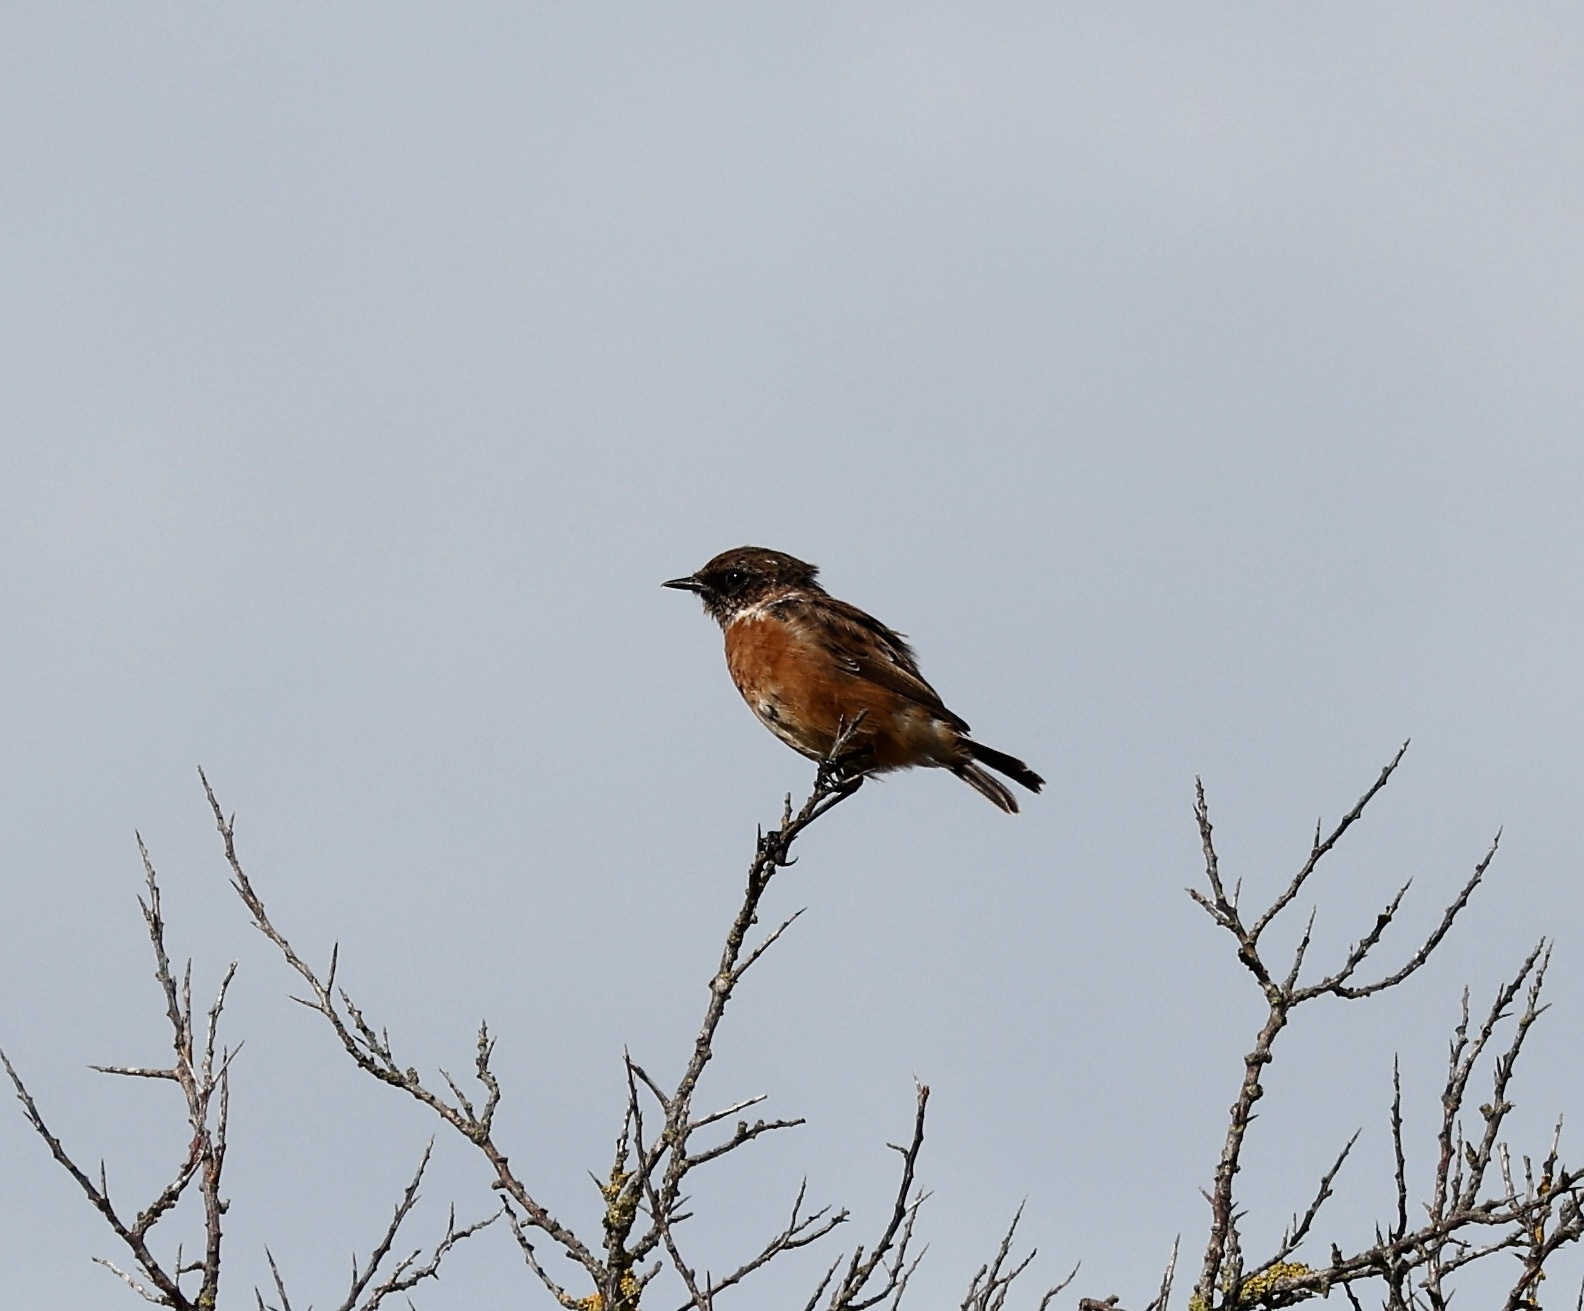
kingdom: Animalia
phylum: Chordata
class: Aves
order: Passeriformes
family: Muscicapidae
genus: Saxicola
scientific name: Saxicola rubicola
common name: European stonechat
